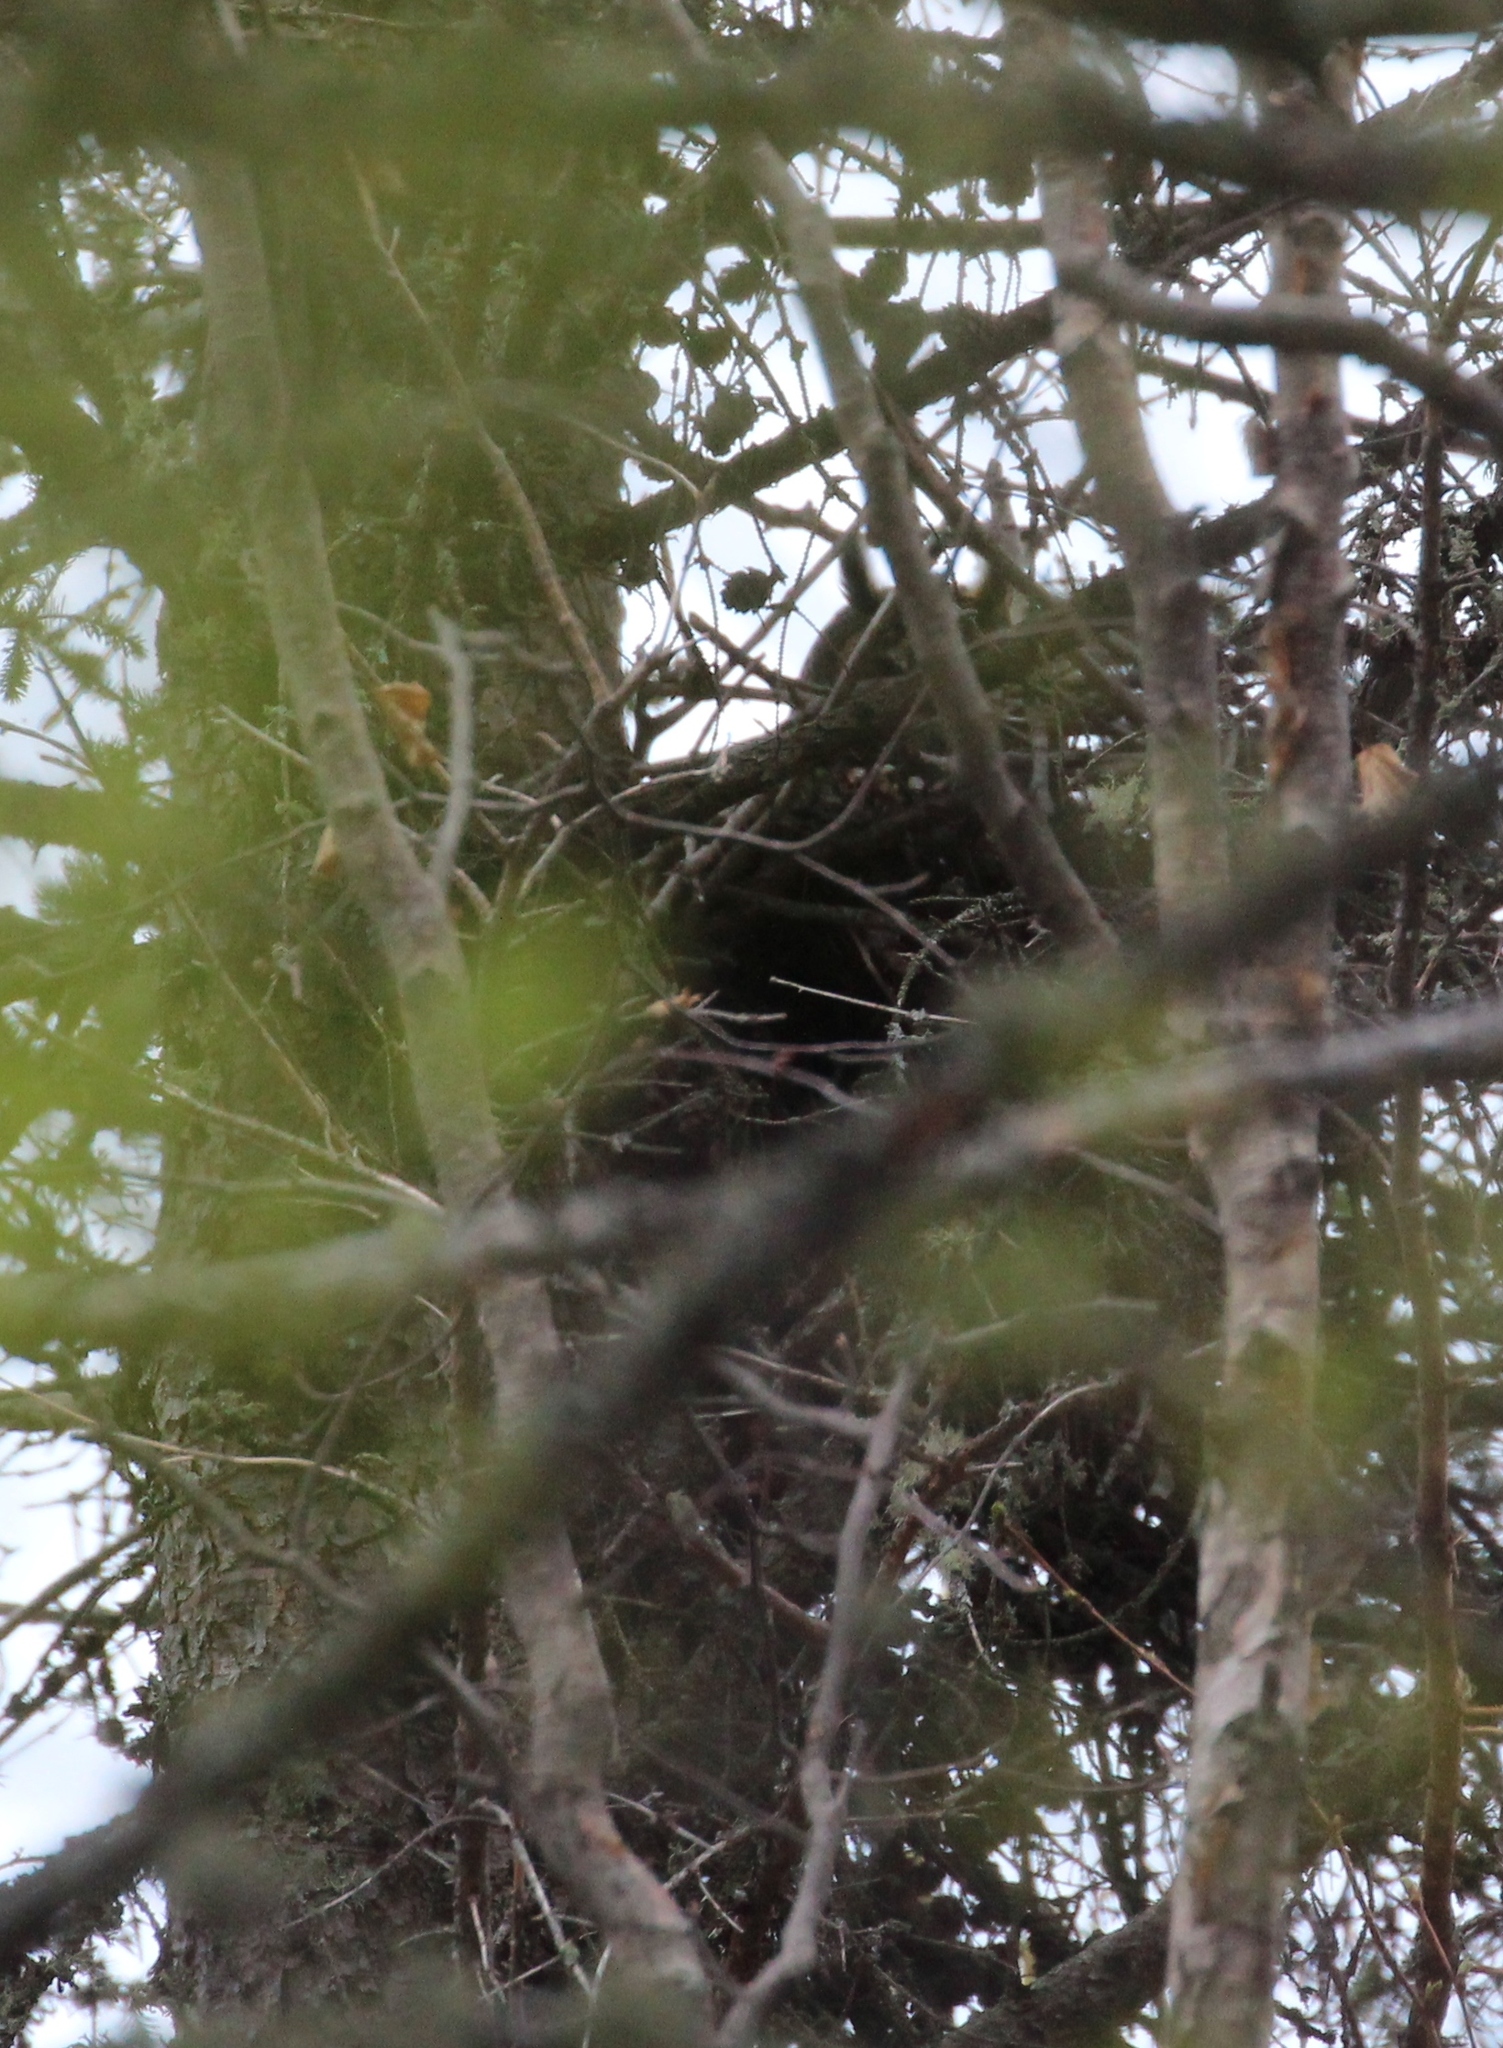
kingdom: Animalia
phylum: Chordata
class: Aves
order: Strigiformes
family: Strigidae
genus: Asio
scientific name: Asio otus
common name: Long-eared owl
